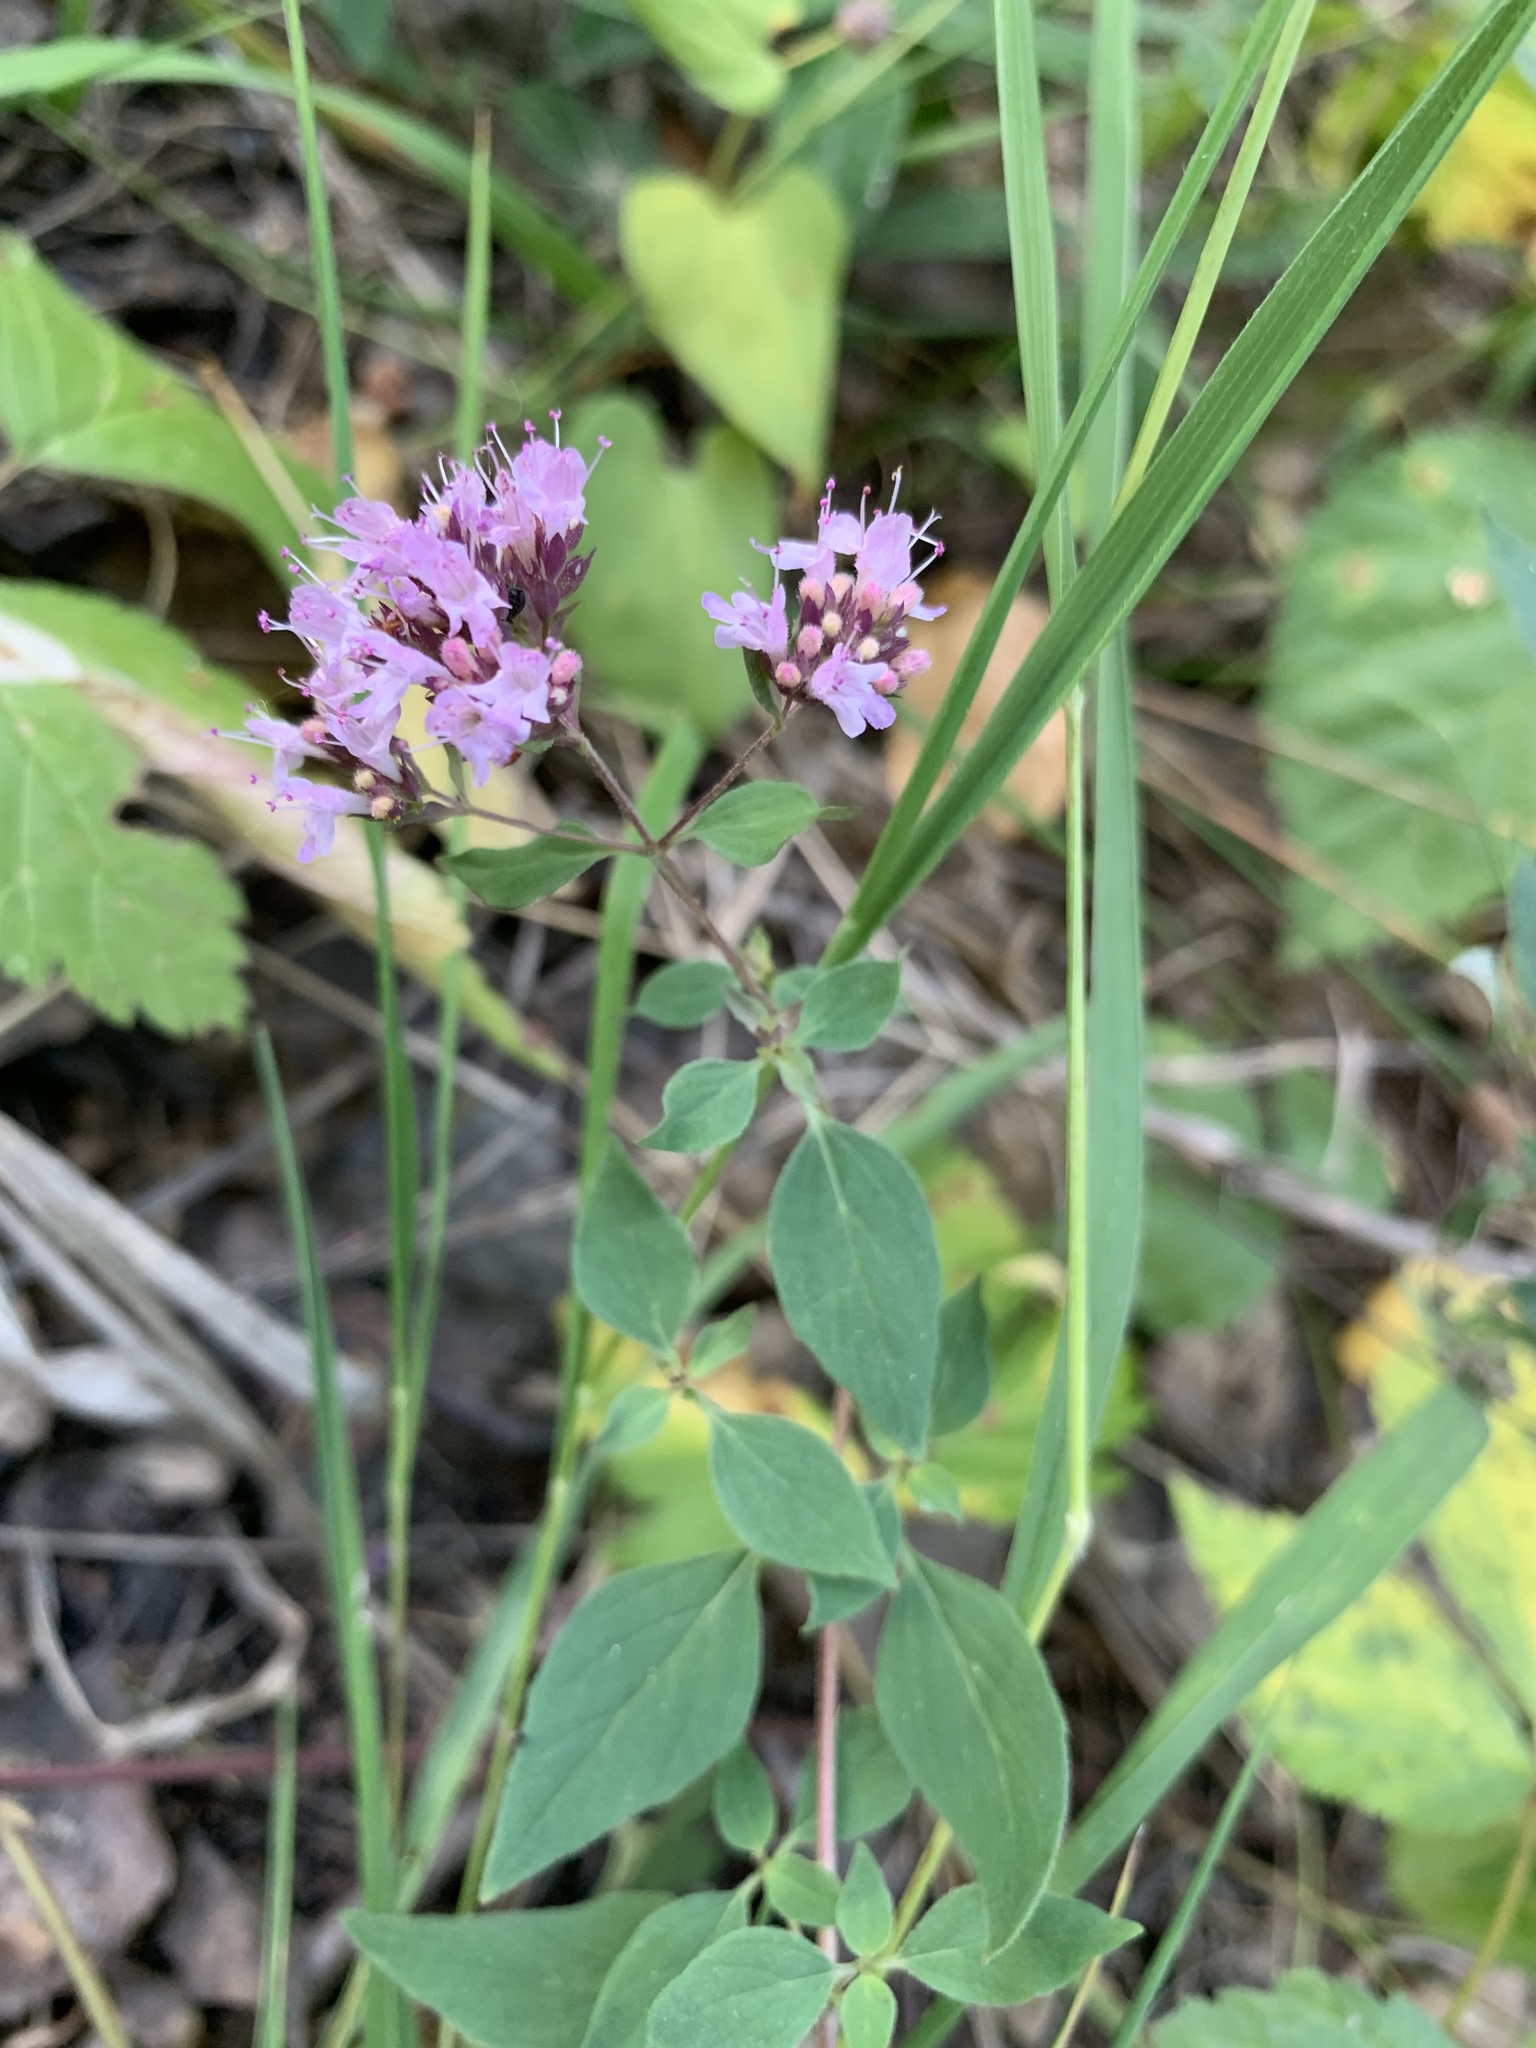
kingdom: Plantae
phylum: Tracheophyta
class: Magnoliopsida
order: Lamiales
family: Lamiaceae
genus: Origanum
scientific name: Origanum vulgare
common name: Wild marjoram
